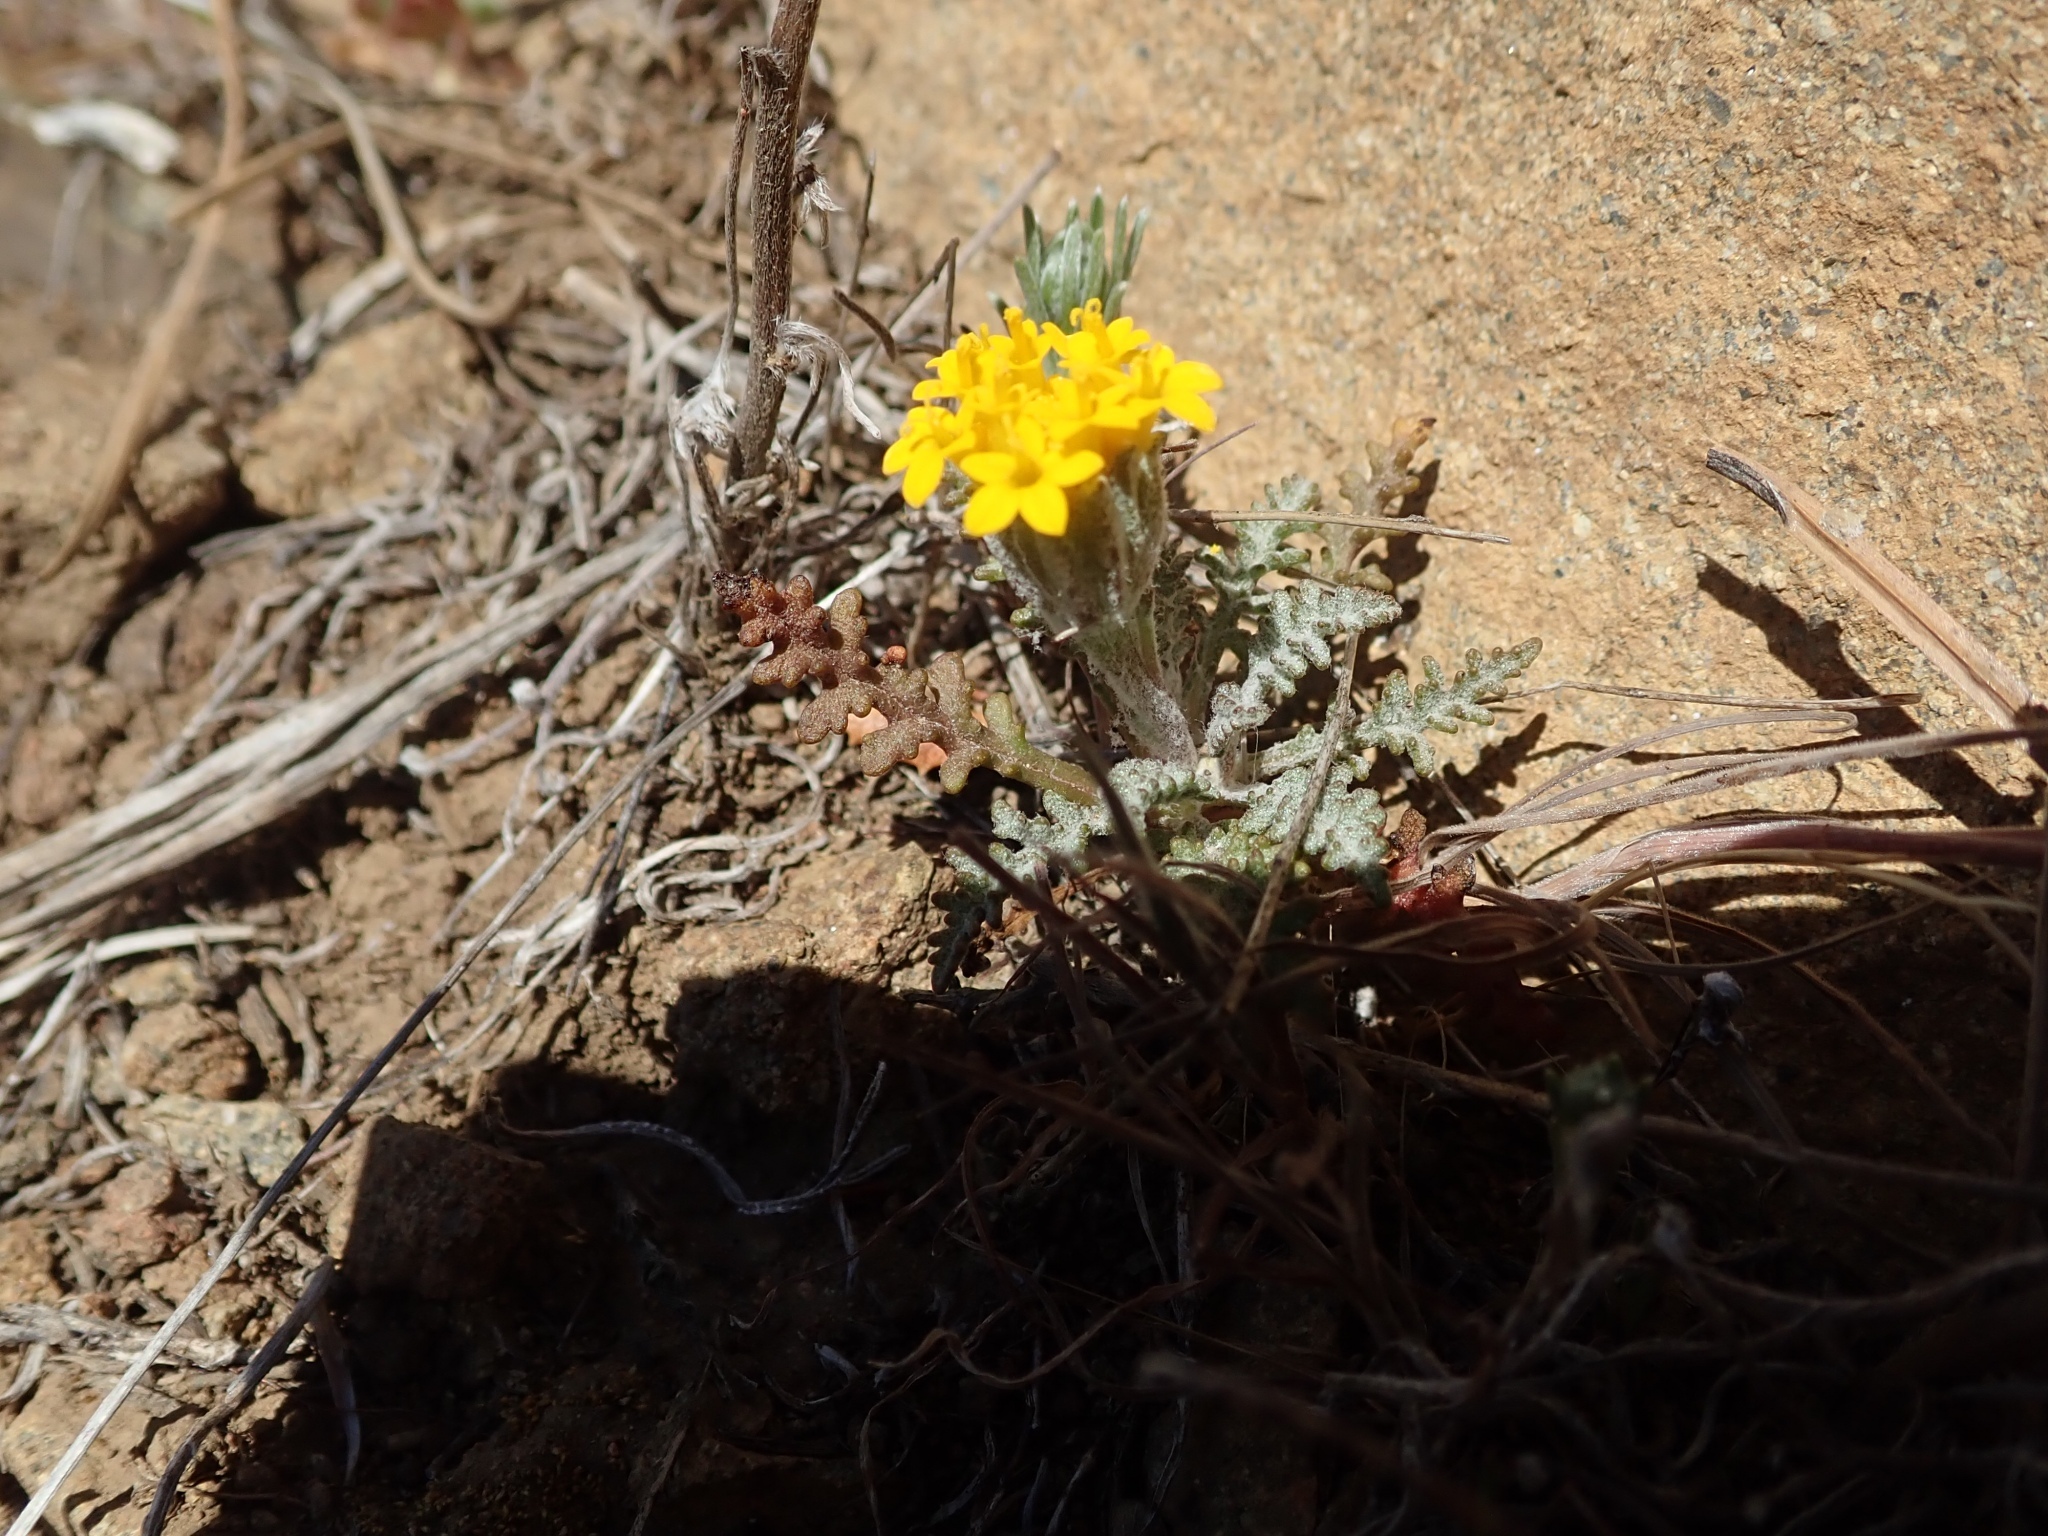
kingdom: Plantae
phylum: Tracheophyta
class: Magnoliopsida
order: Asterales
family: Asteraceae
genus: Chaenactis
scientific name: Chaenactis glabriuscula
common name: Yellow pincushion
